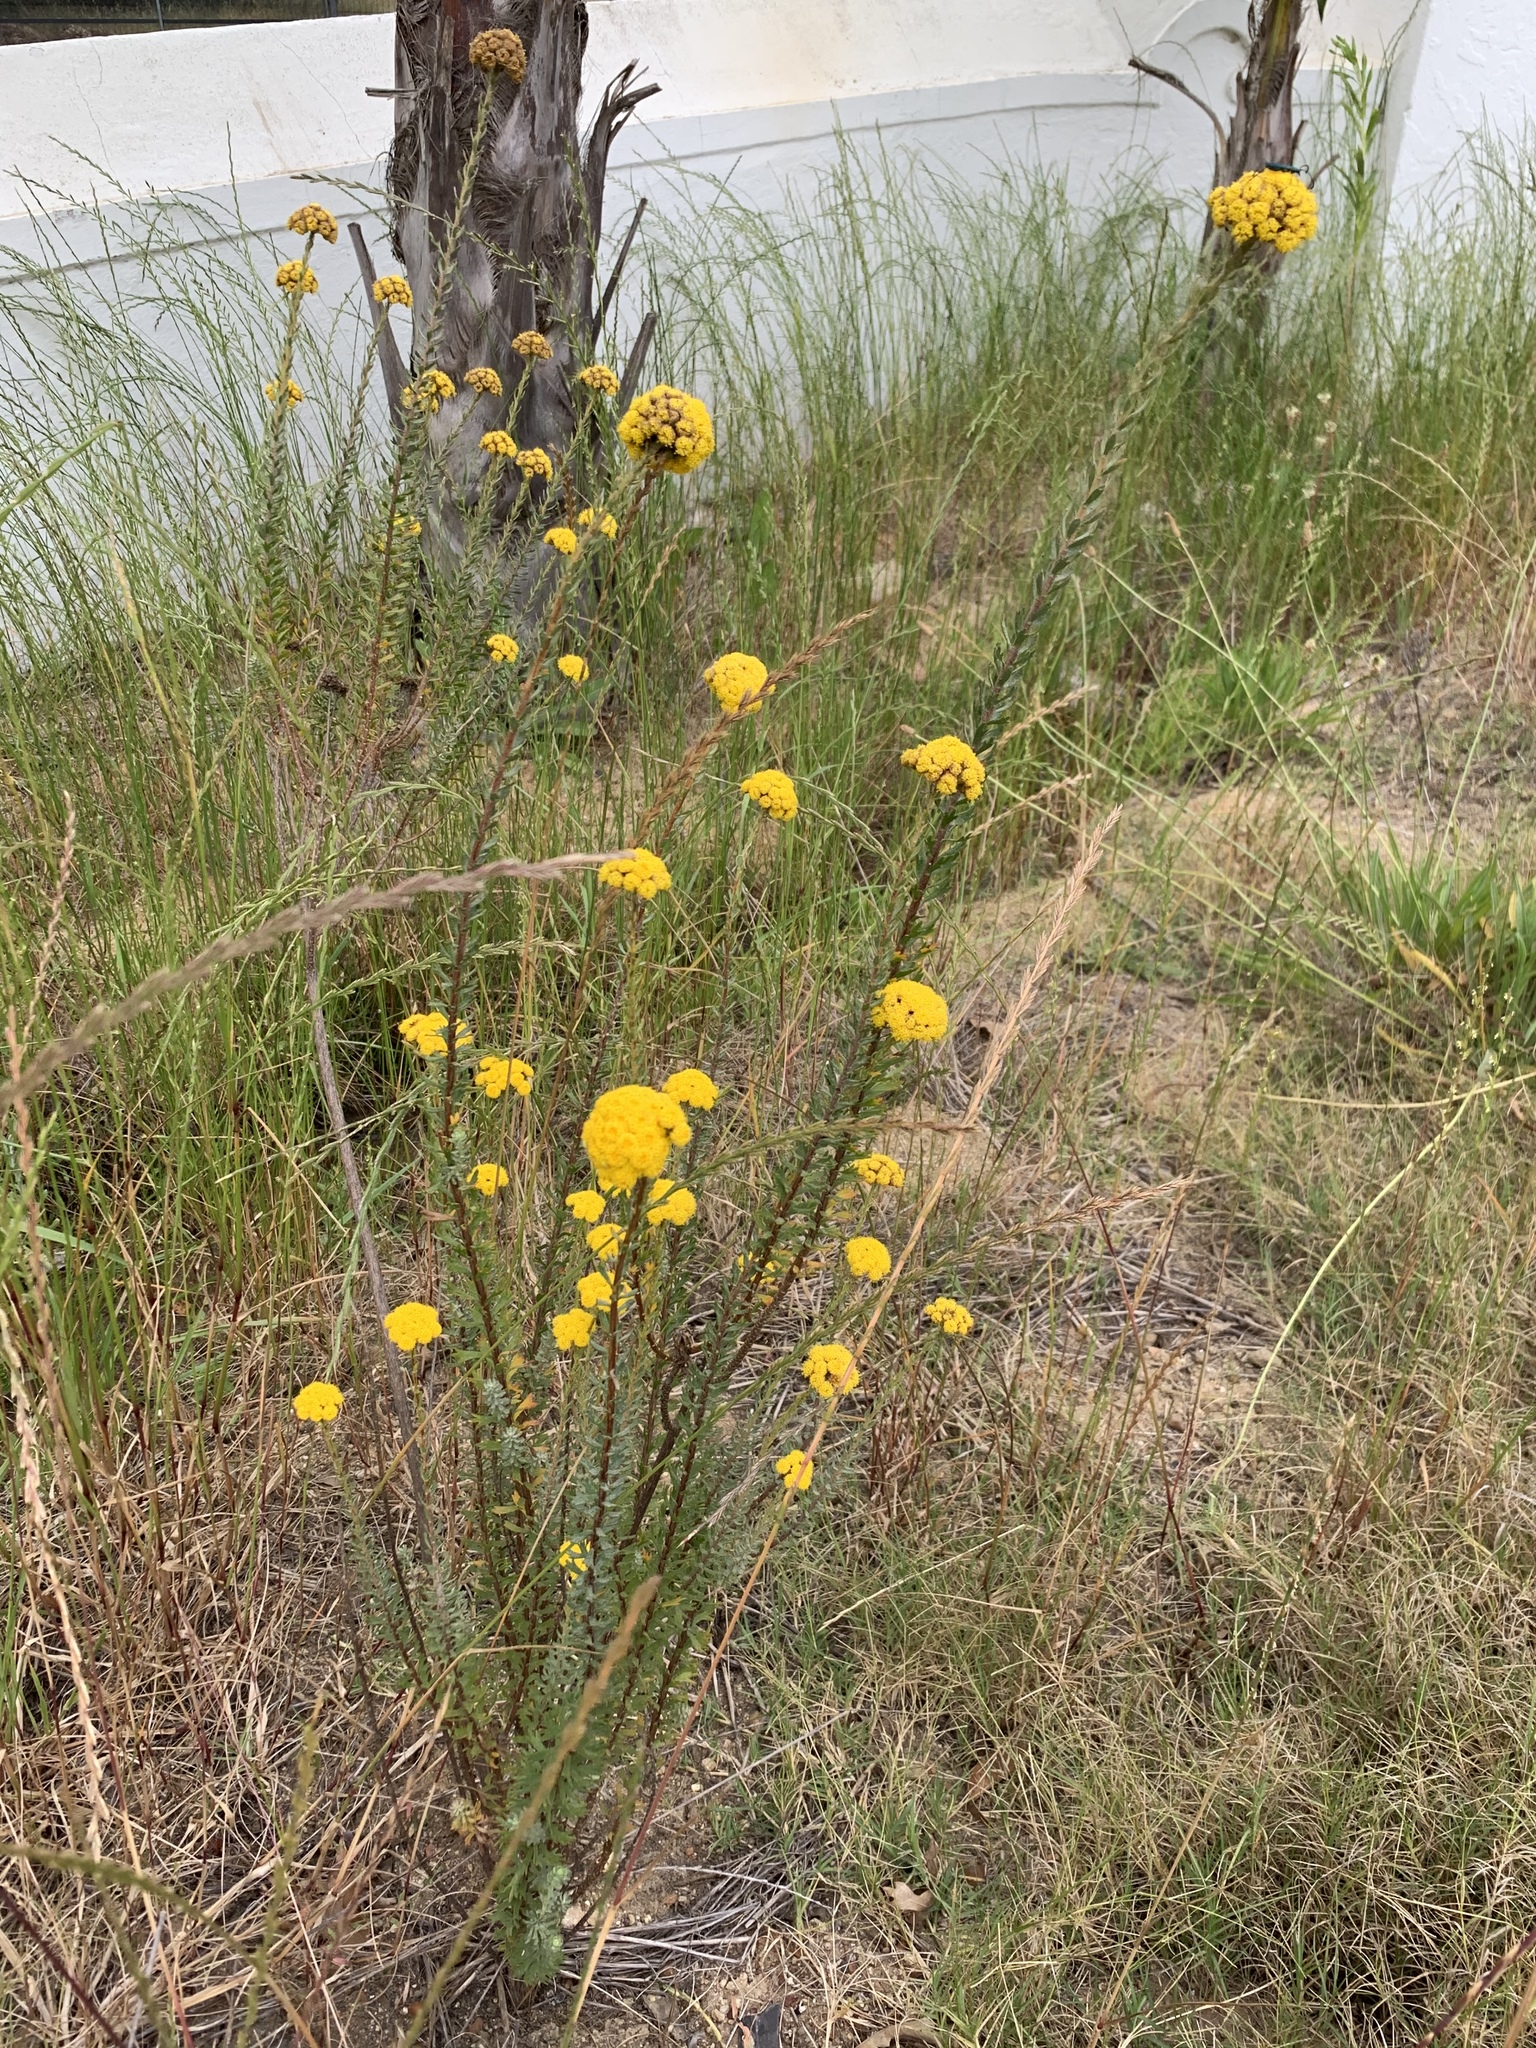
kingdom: Plantae
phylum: Tracheophyta
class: Magnoliopsida
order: Asterales
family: Asteraceae
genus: Athanasia
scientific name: Athanasia trifurcata
